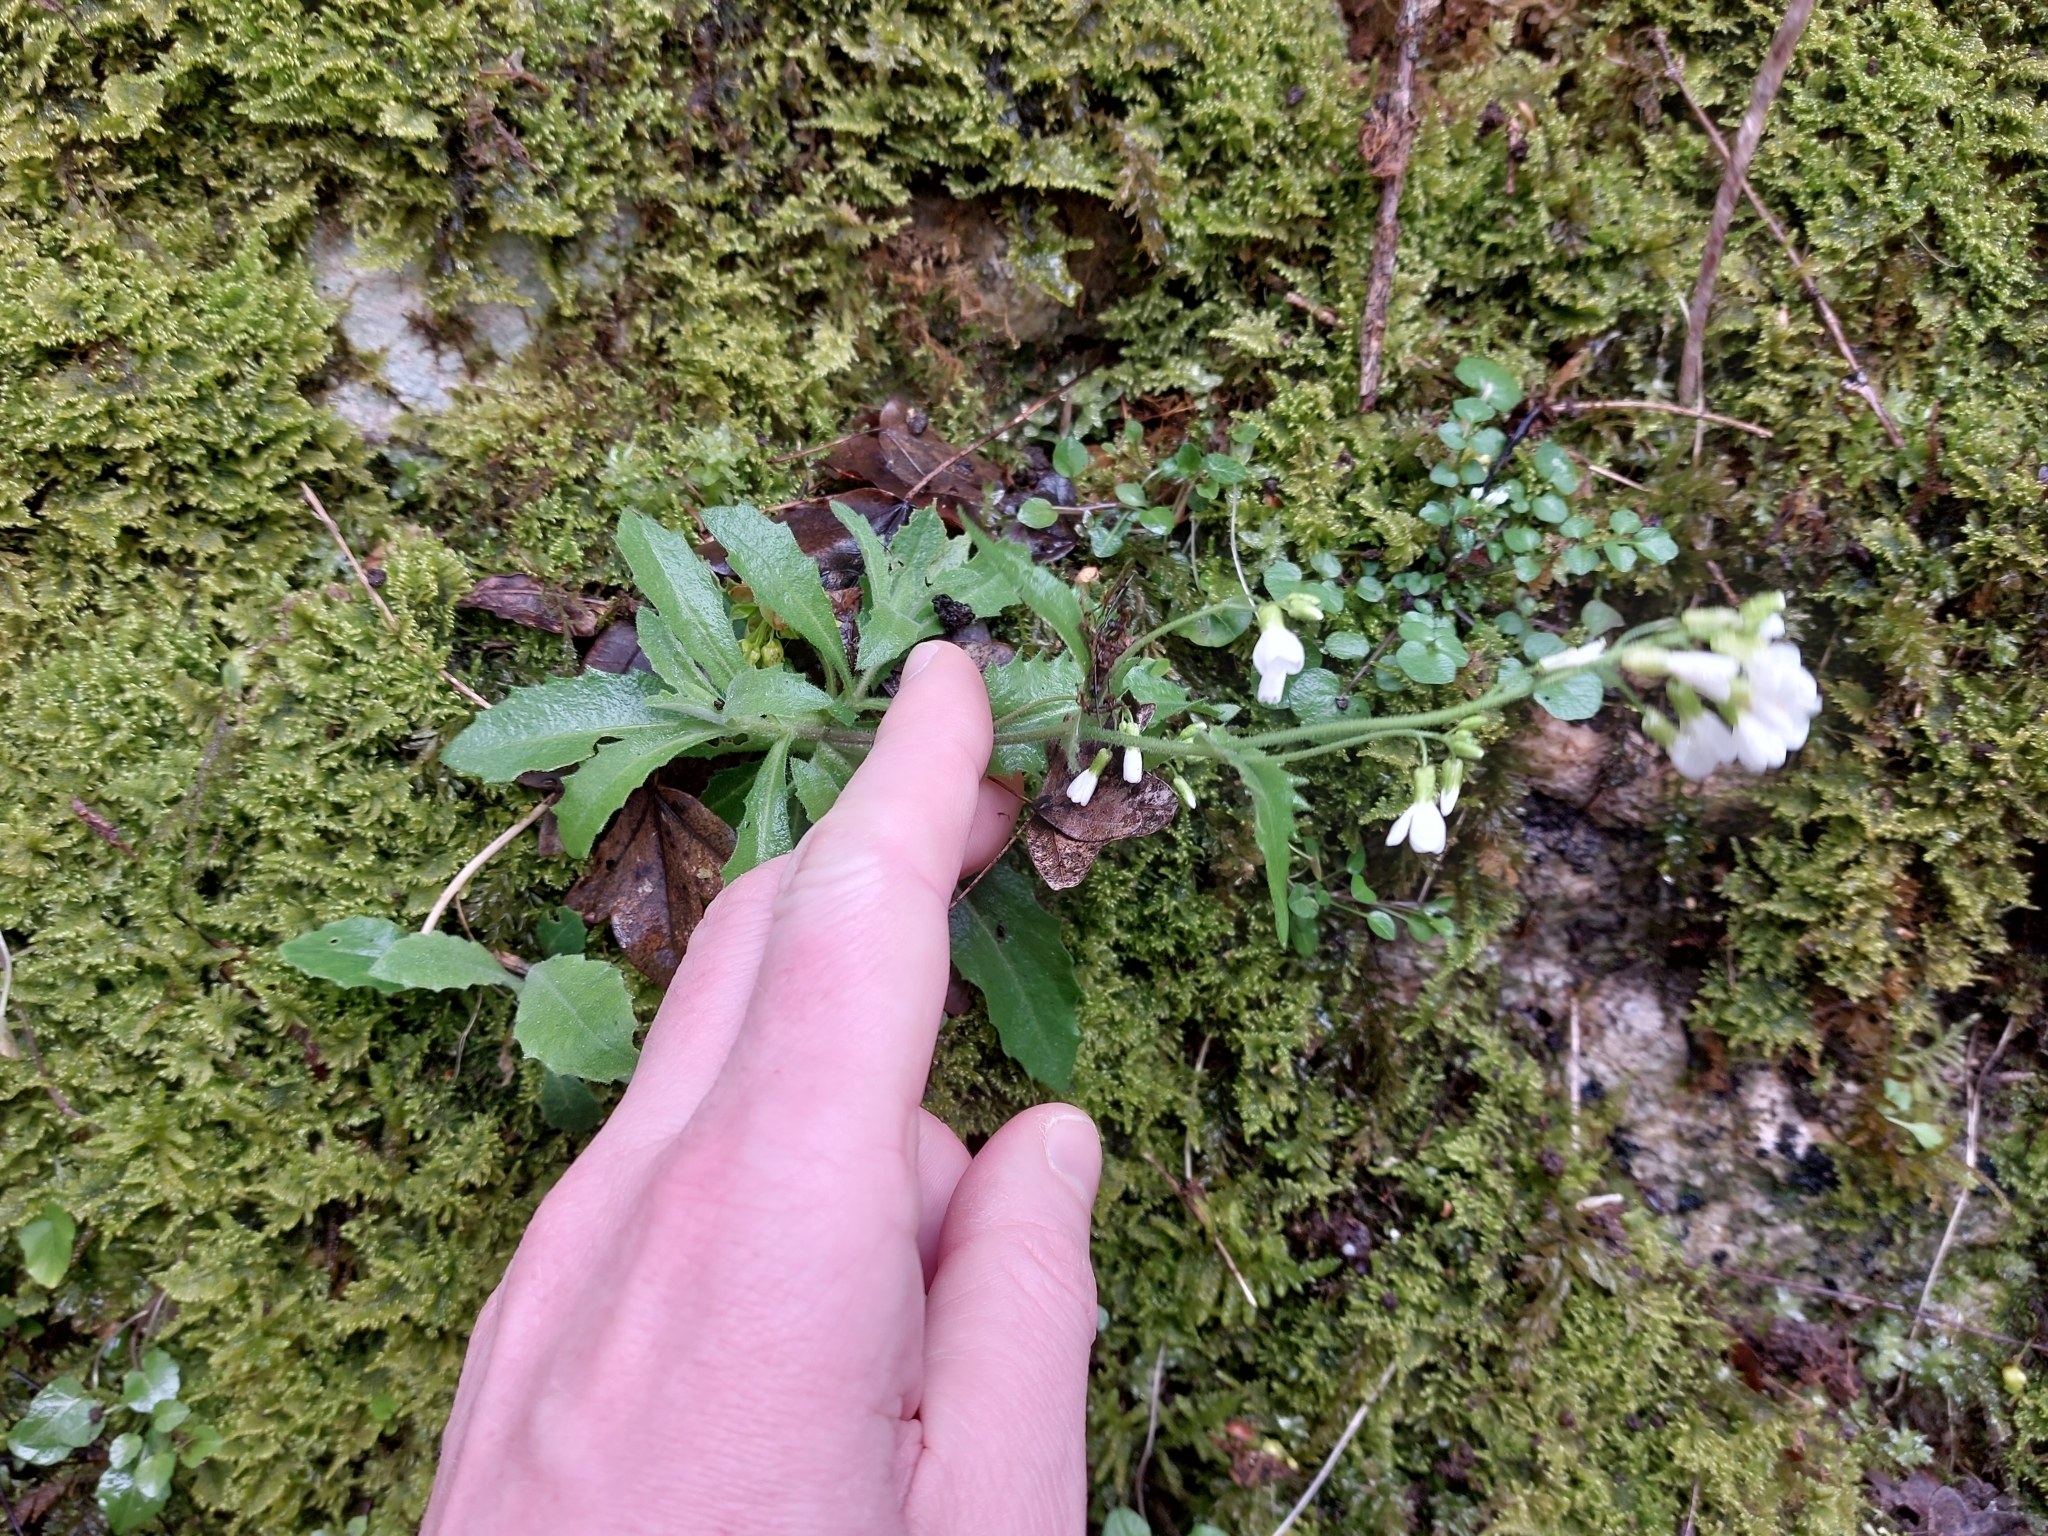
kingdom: Plantae
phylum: Tracheophyta
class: Magnoliopsida
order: Brassicales
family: Brassicaceae
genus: Arabis
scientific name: Arabis alpina
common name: Alpine rock-cress
